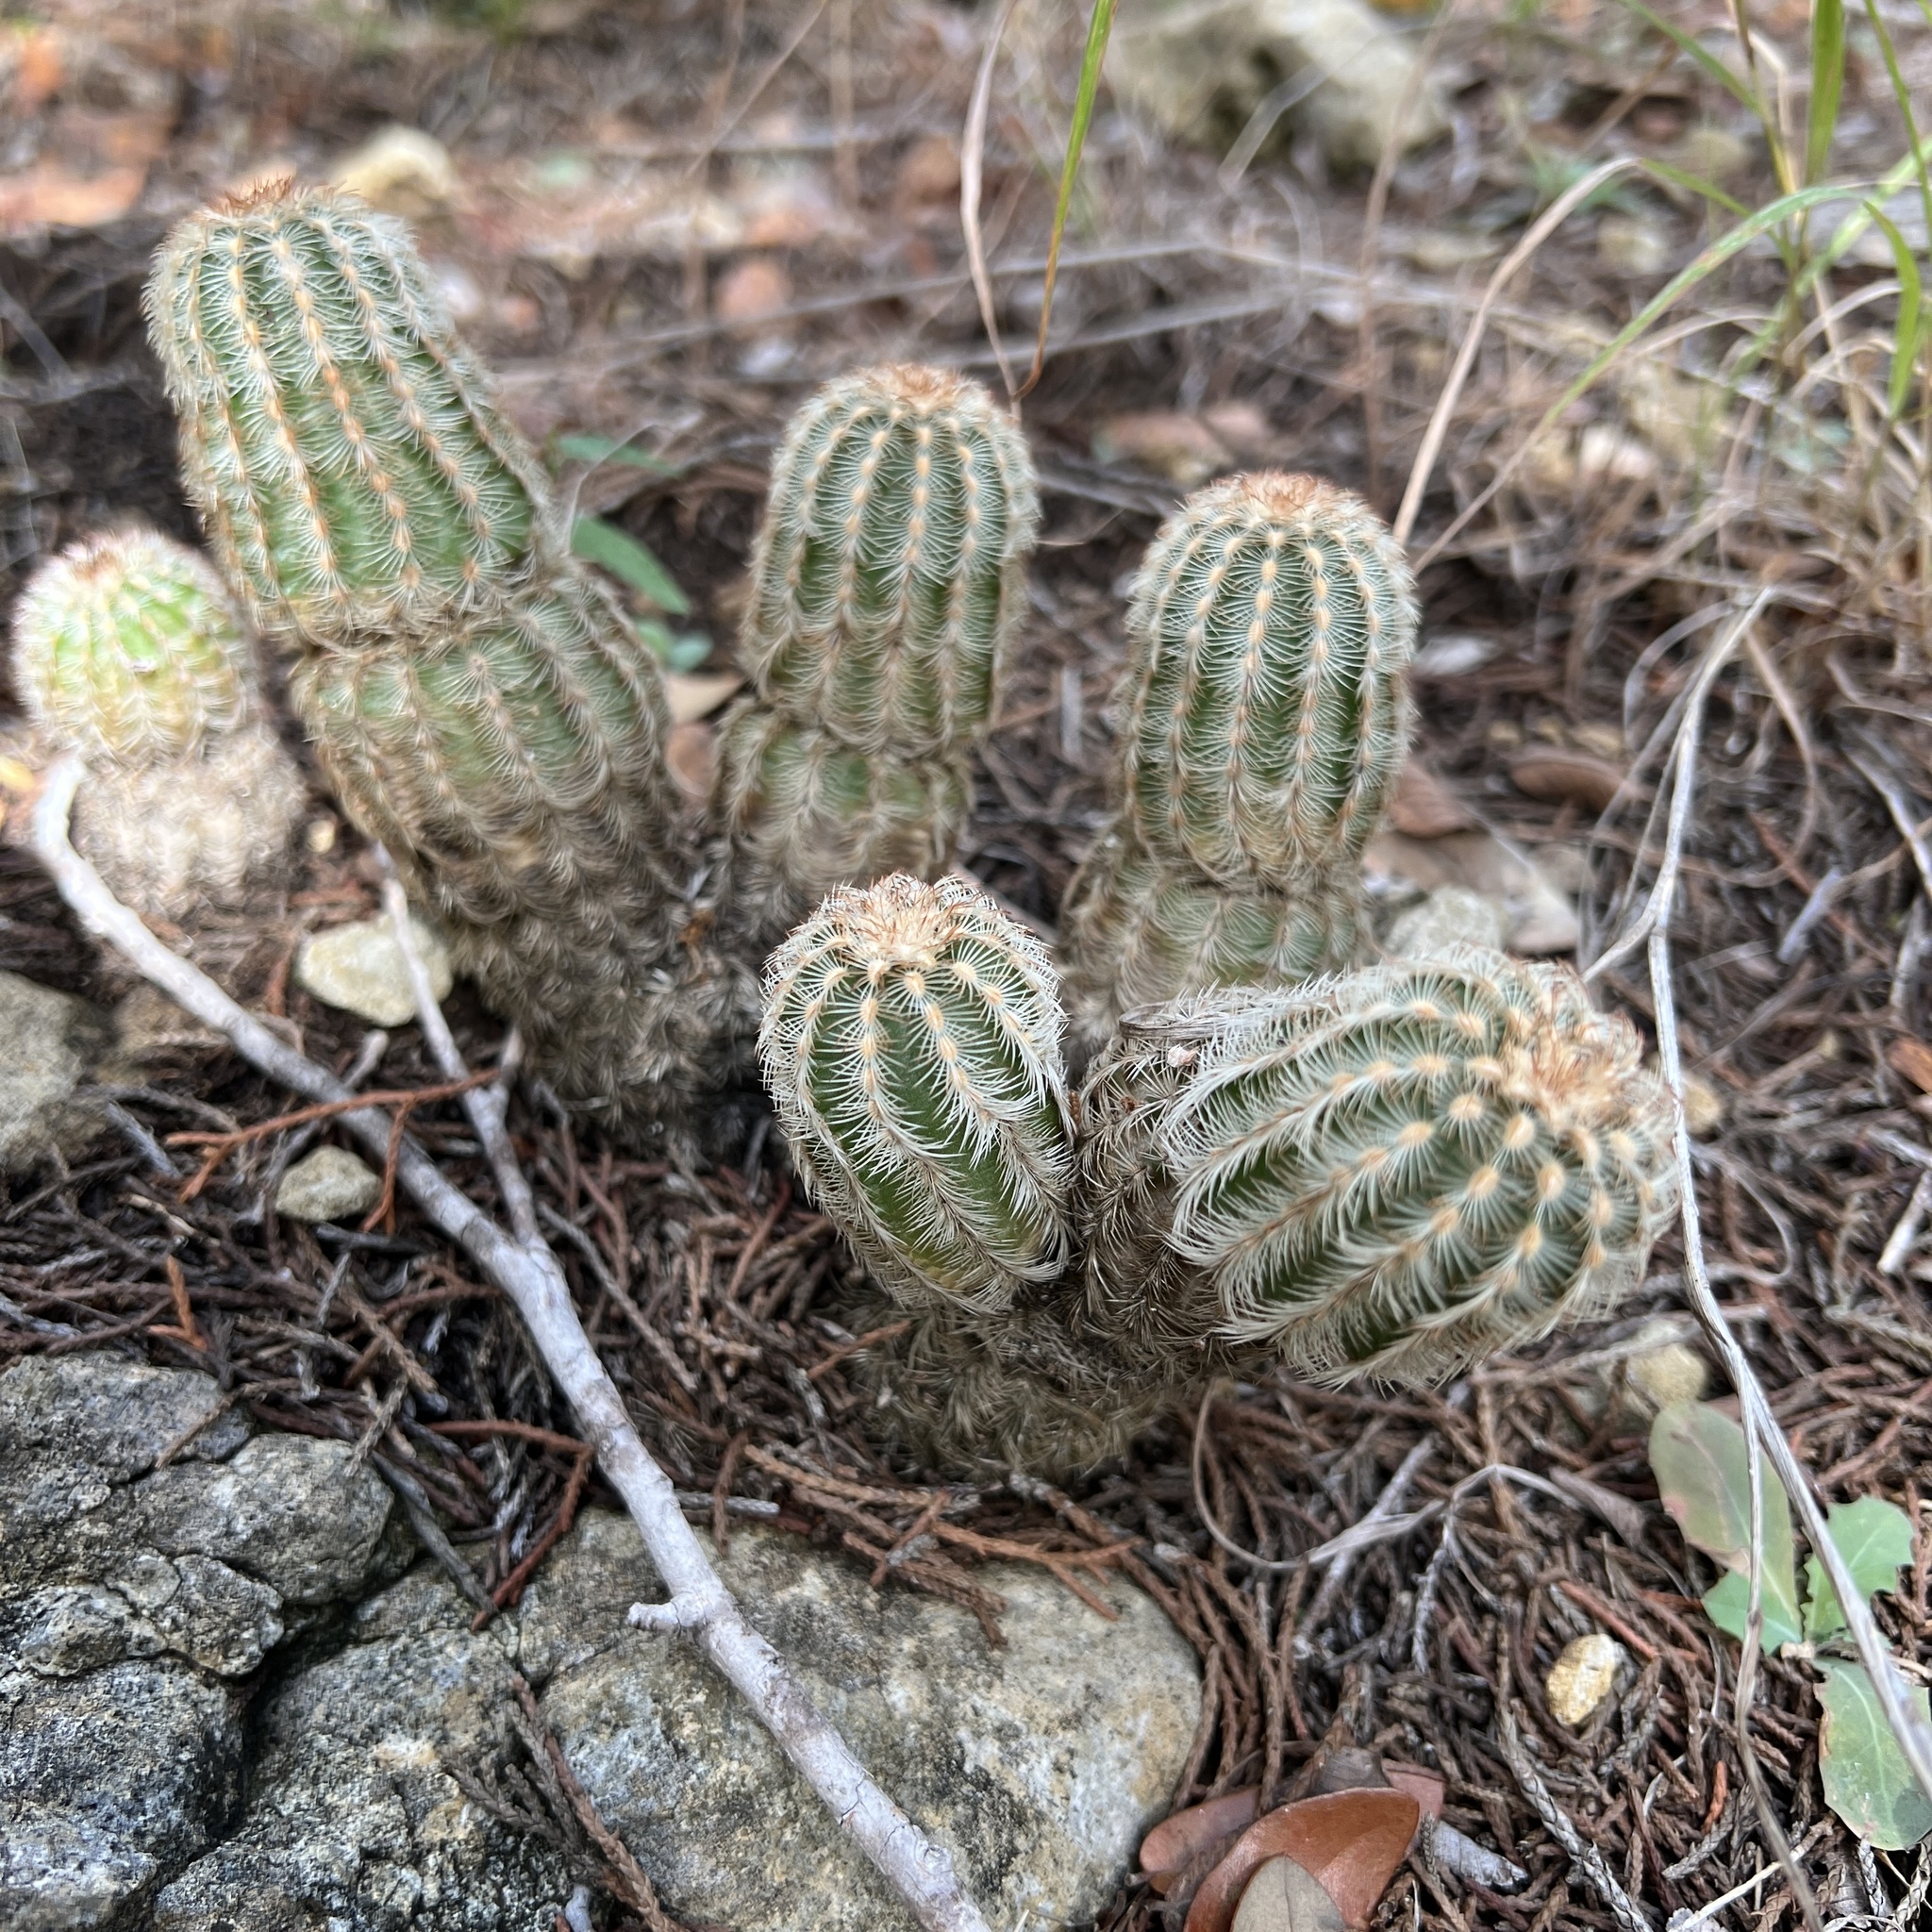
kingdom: Plantae
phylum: Tracheophyta
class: Magnoliopsida
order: Caryophyllales
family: Cactaceae
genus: Echinocereus
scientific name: Echinocereus reichenbachii
